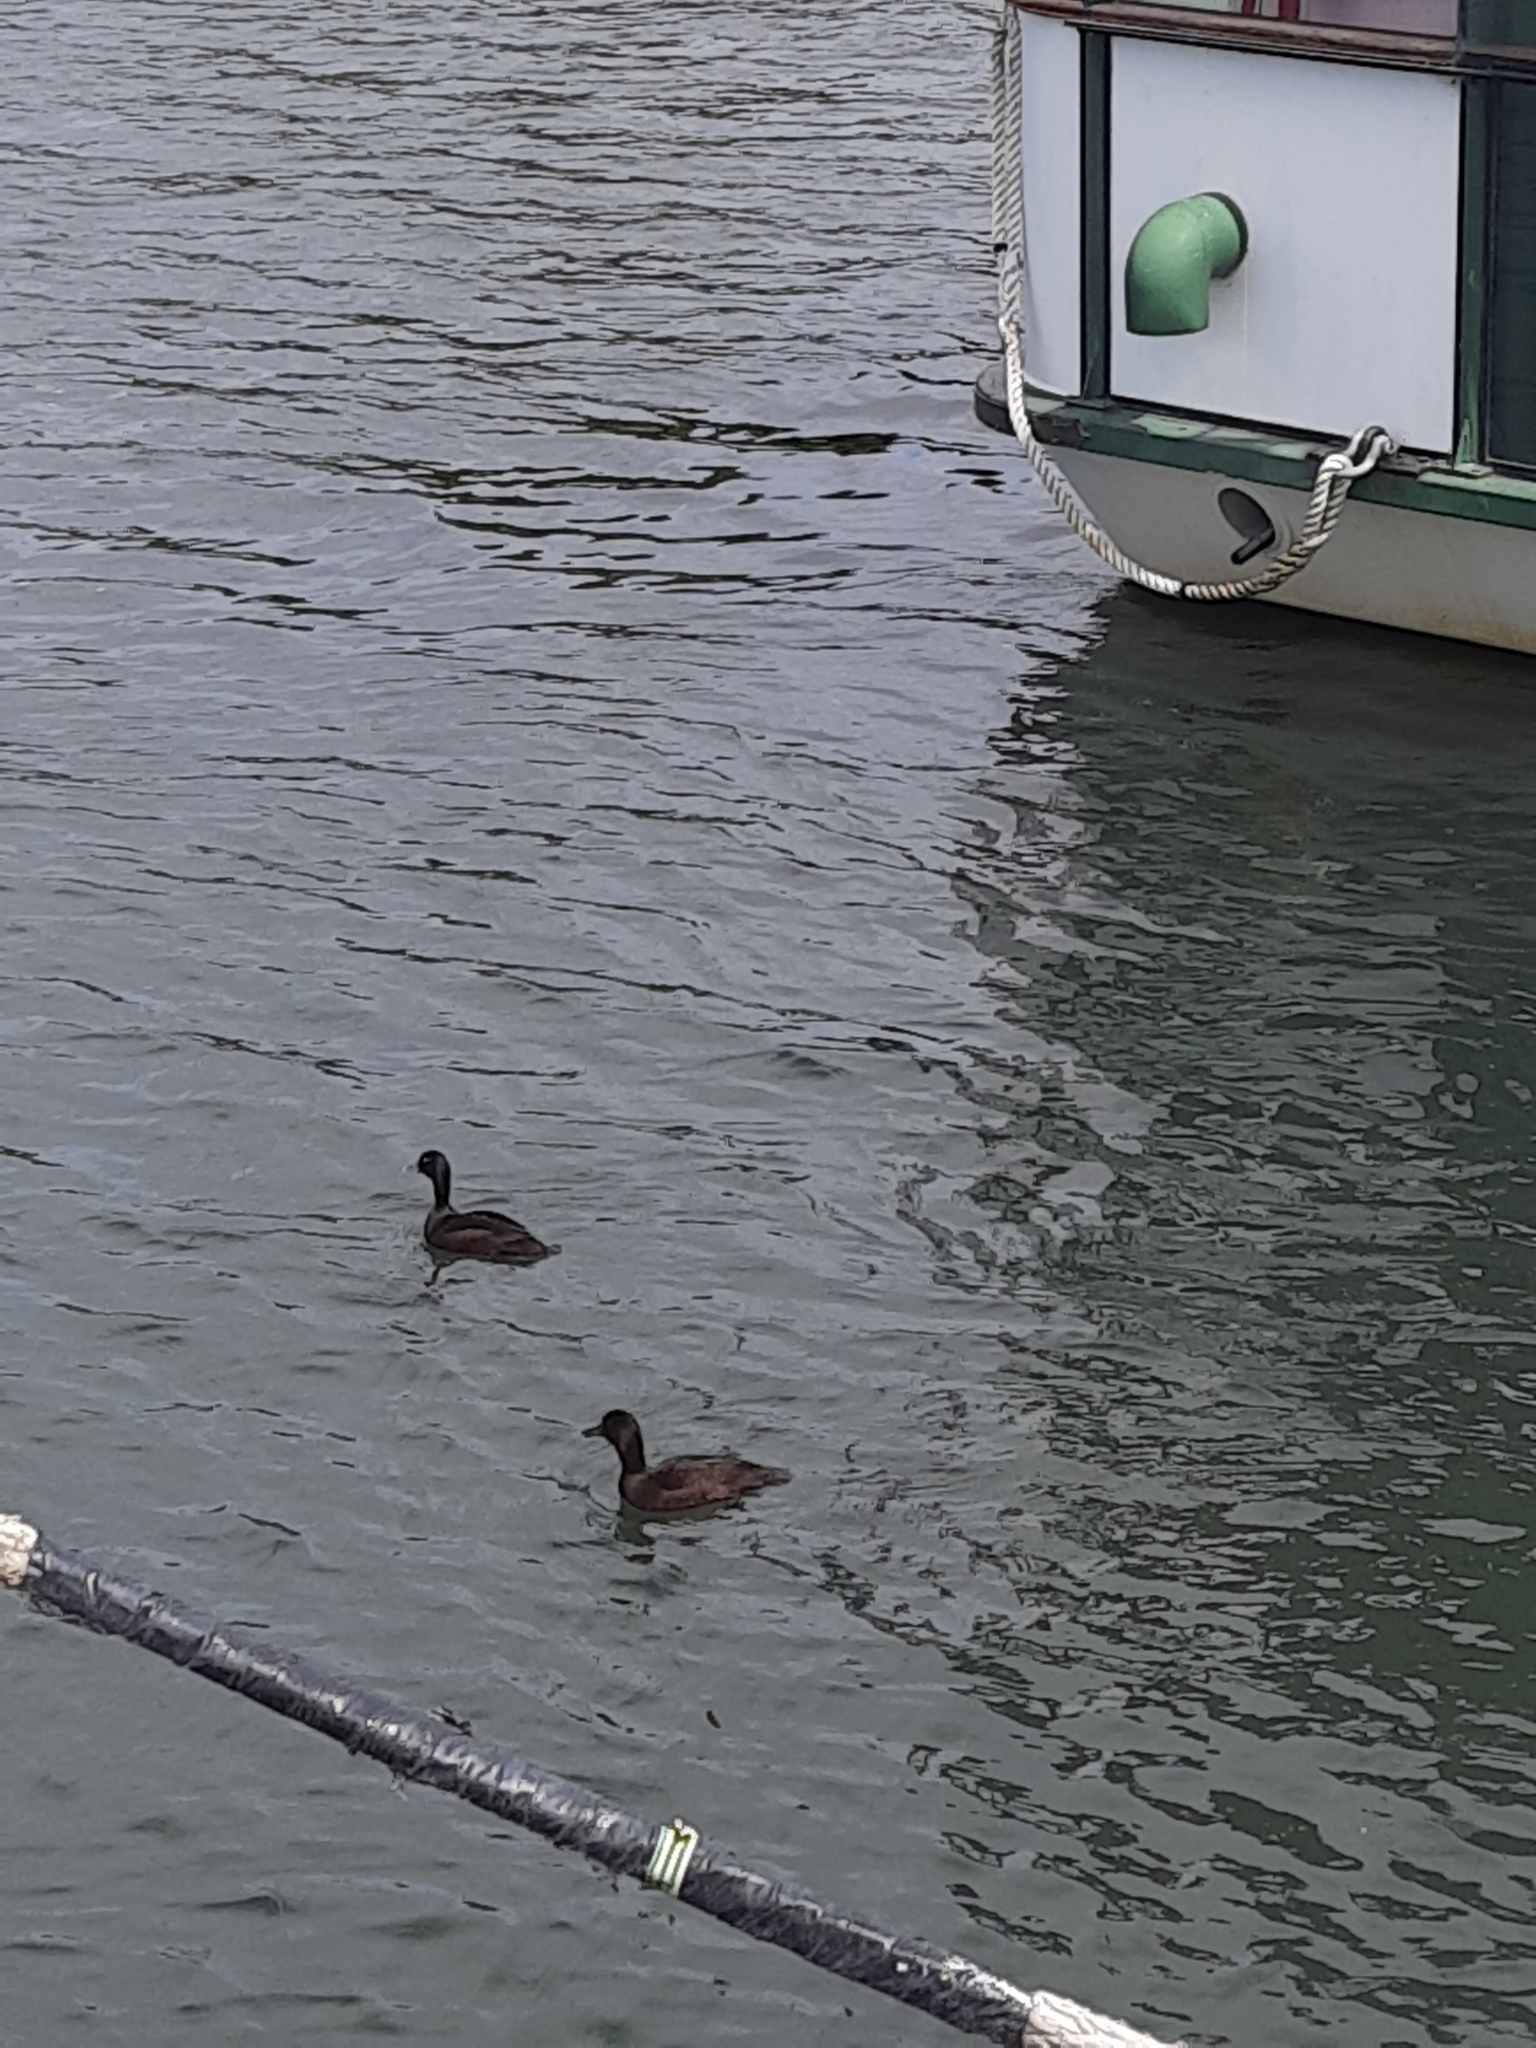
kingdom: Animalia
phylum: Chordata
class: Aves
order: Anseriformes
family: Anatidae
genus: Aythya
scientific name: Aythya novaeseelandiae
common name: New zealand scaup
